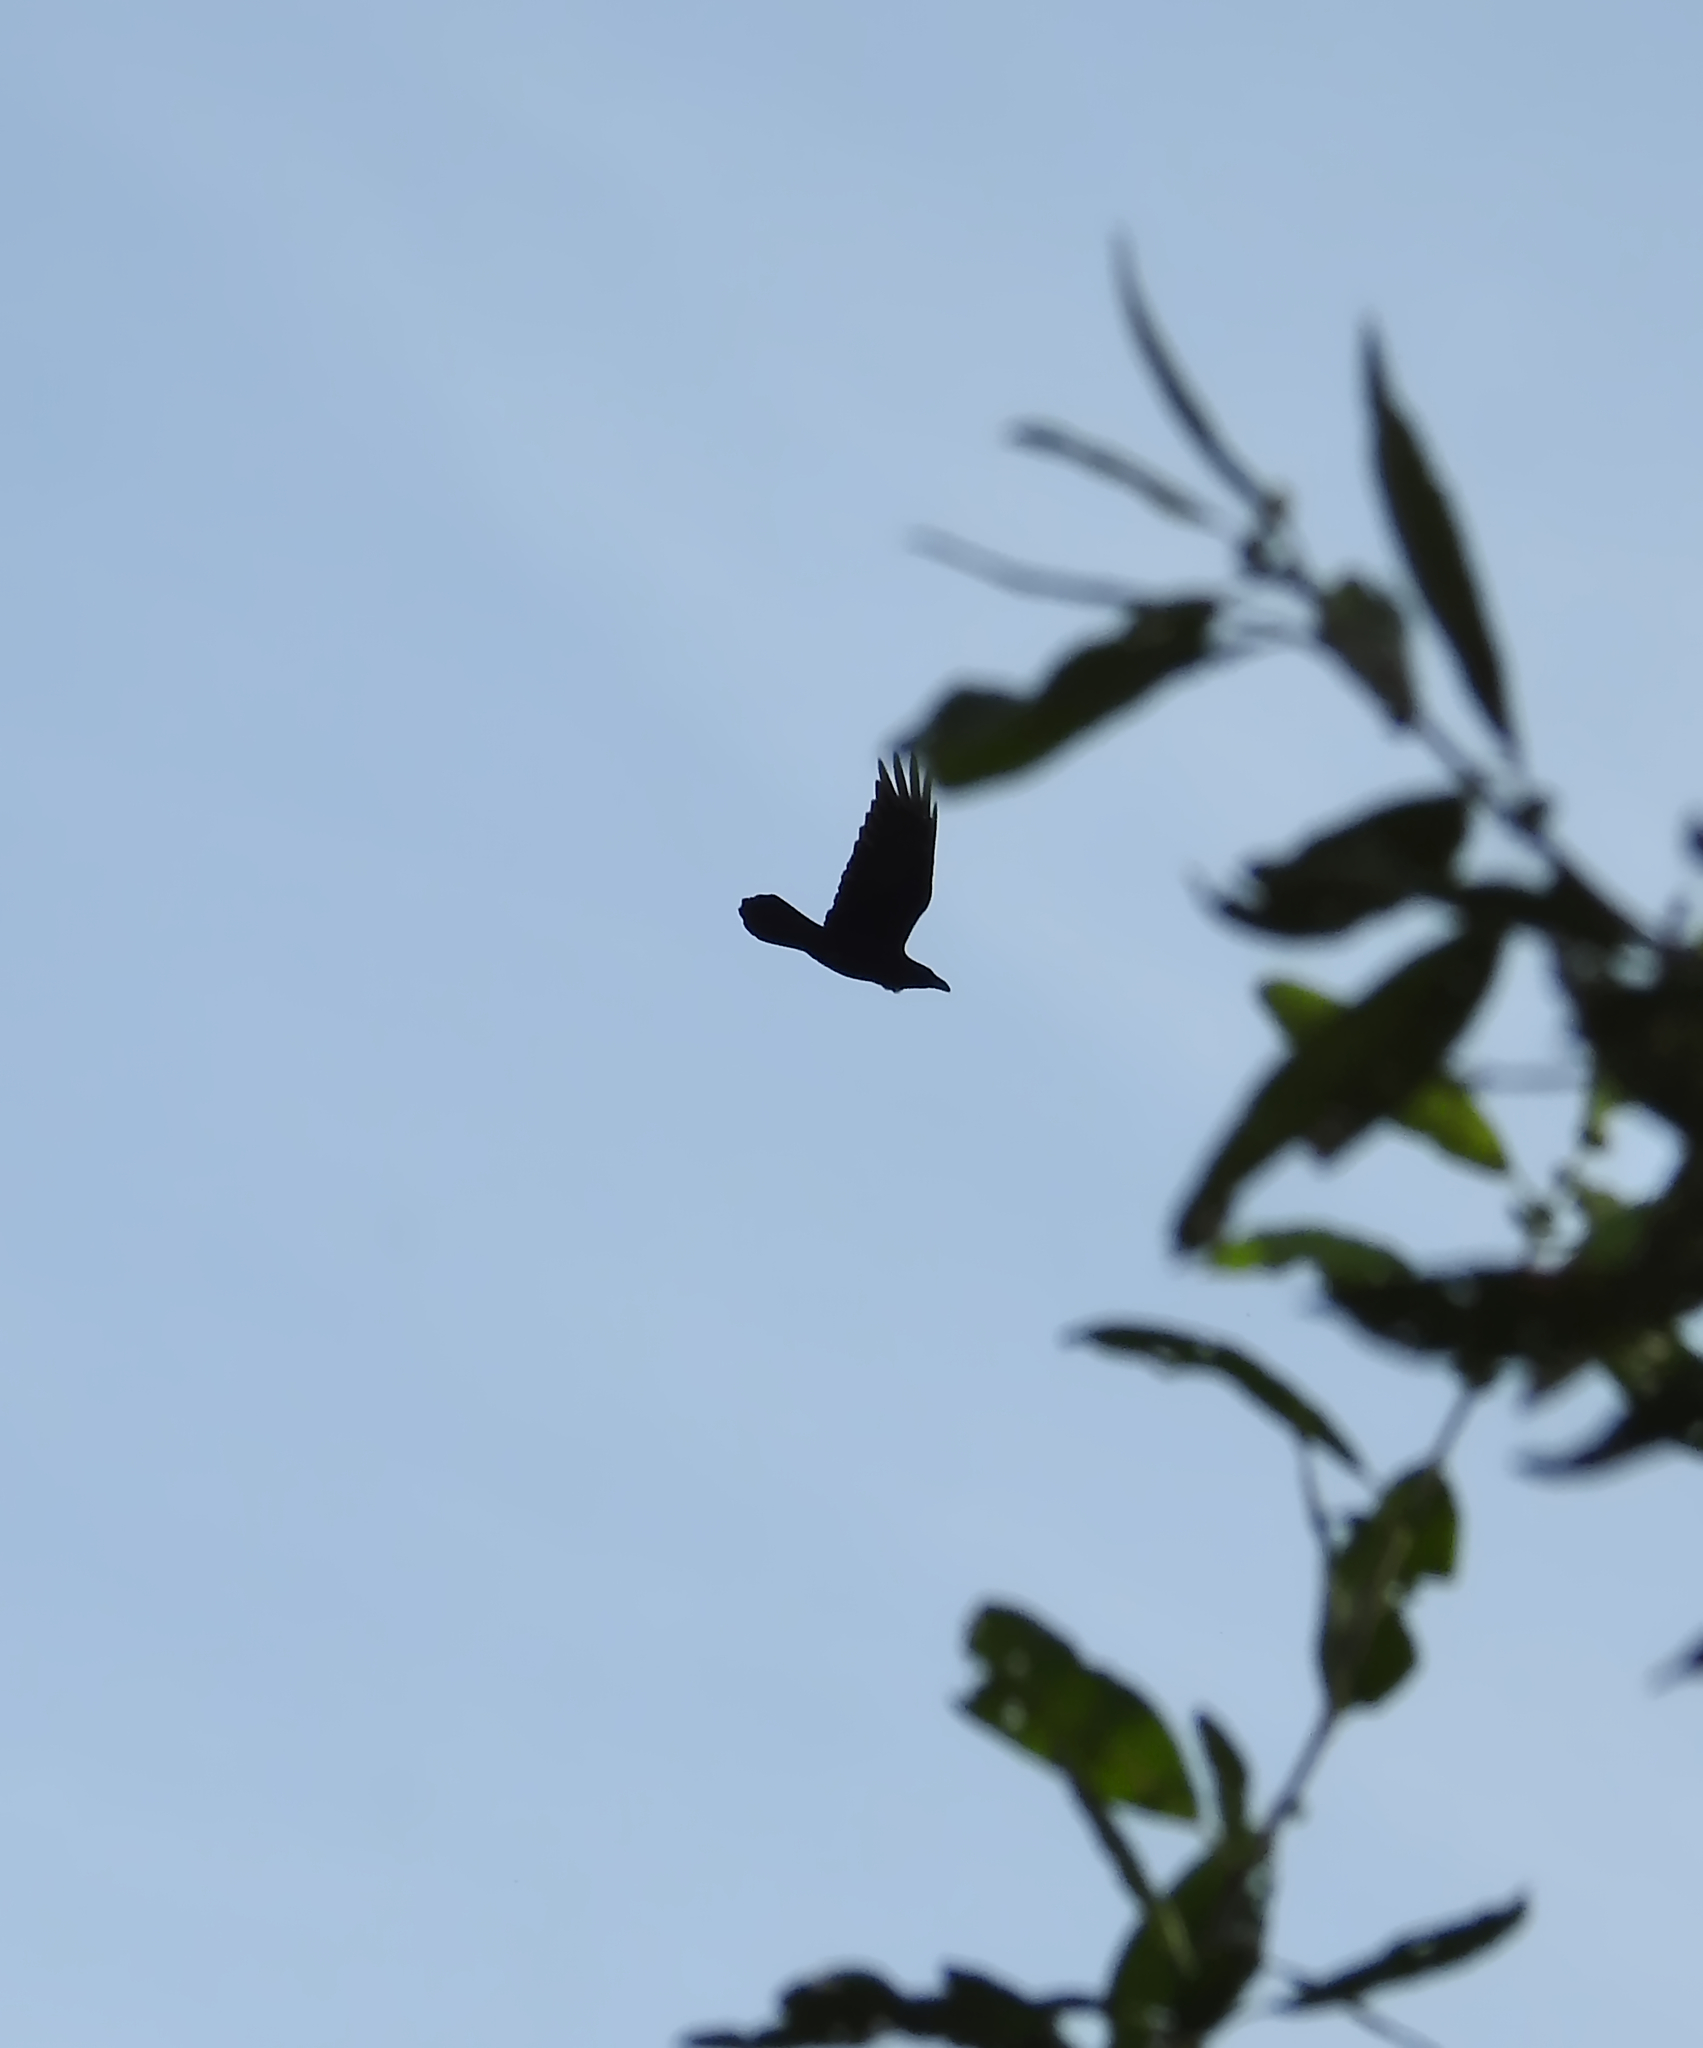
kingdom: Animalia
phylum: Chordata
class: Aves
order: Passeriformes
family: Corvidae
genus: Corvus
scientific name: Corvus corax
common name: Common raven
